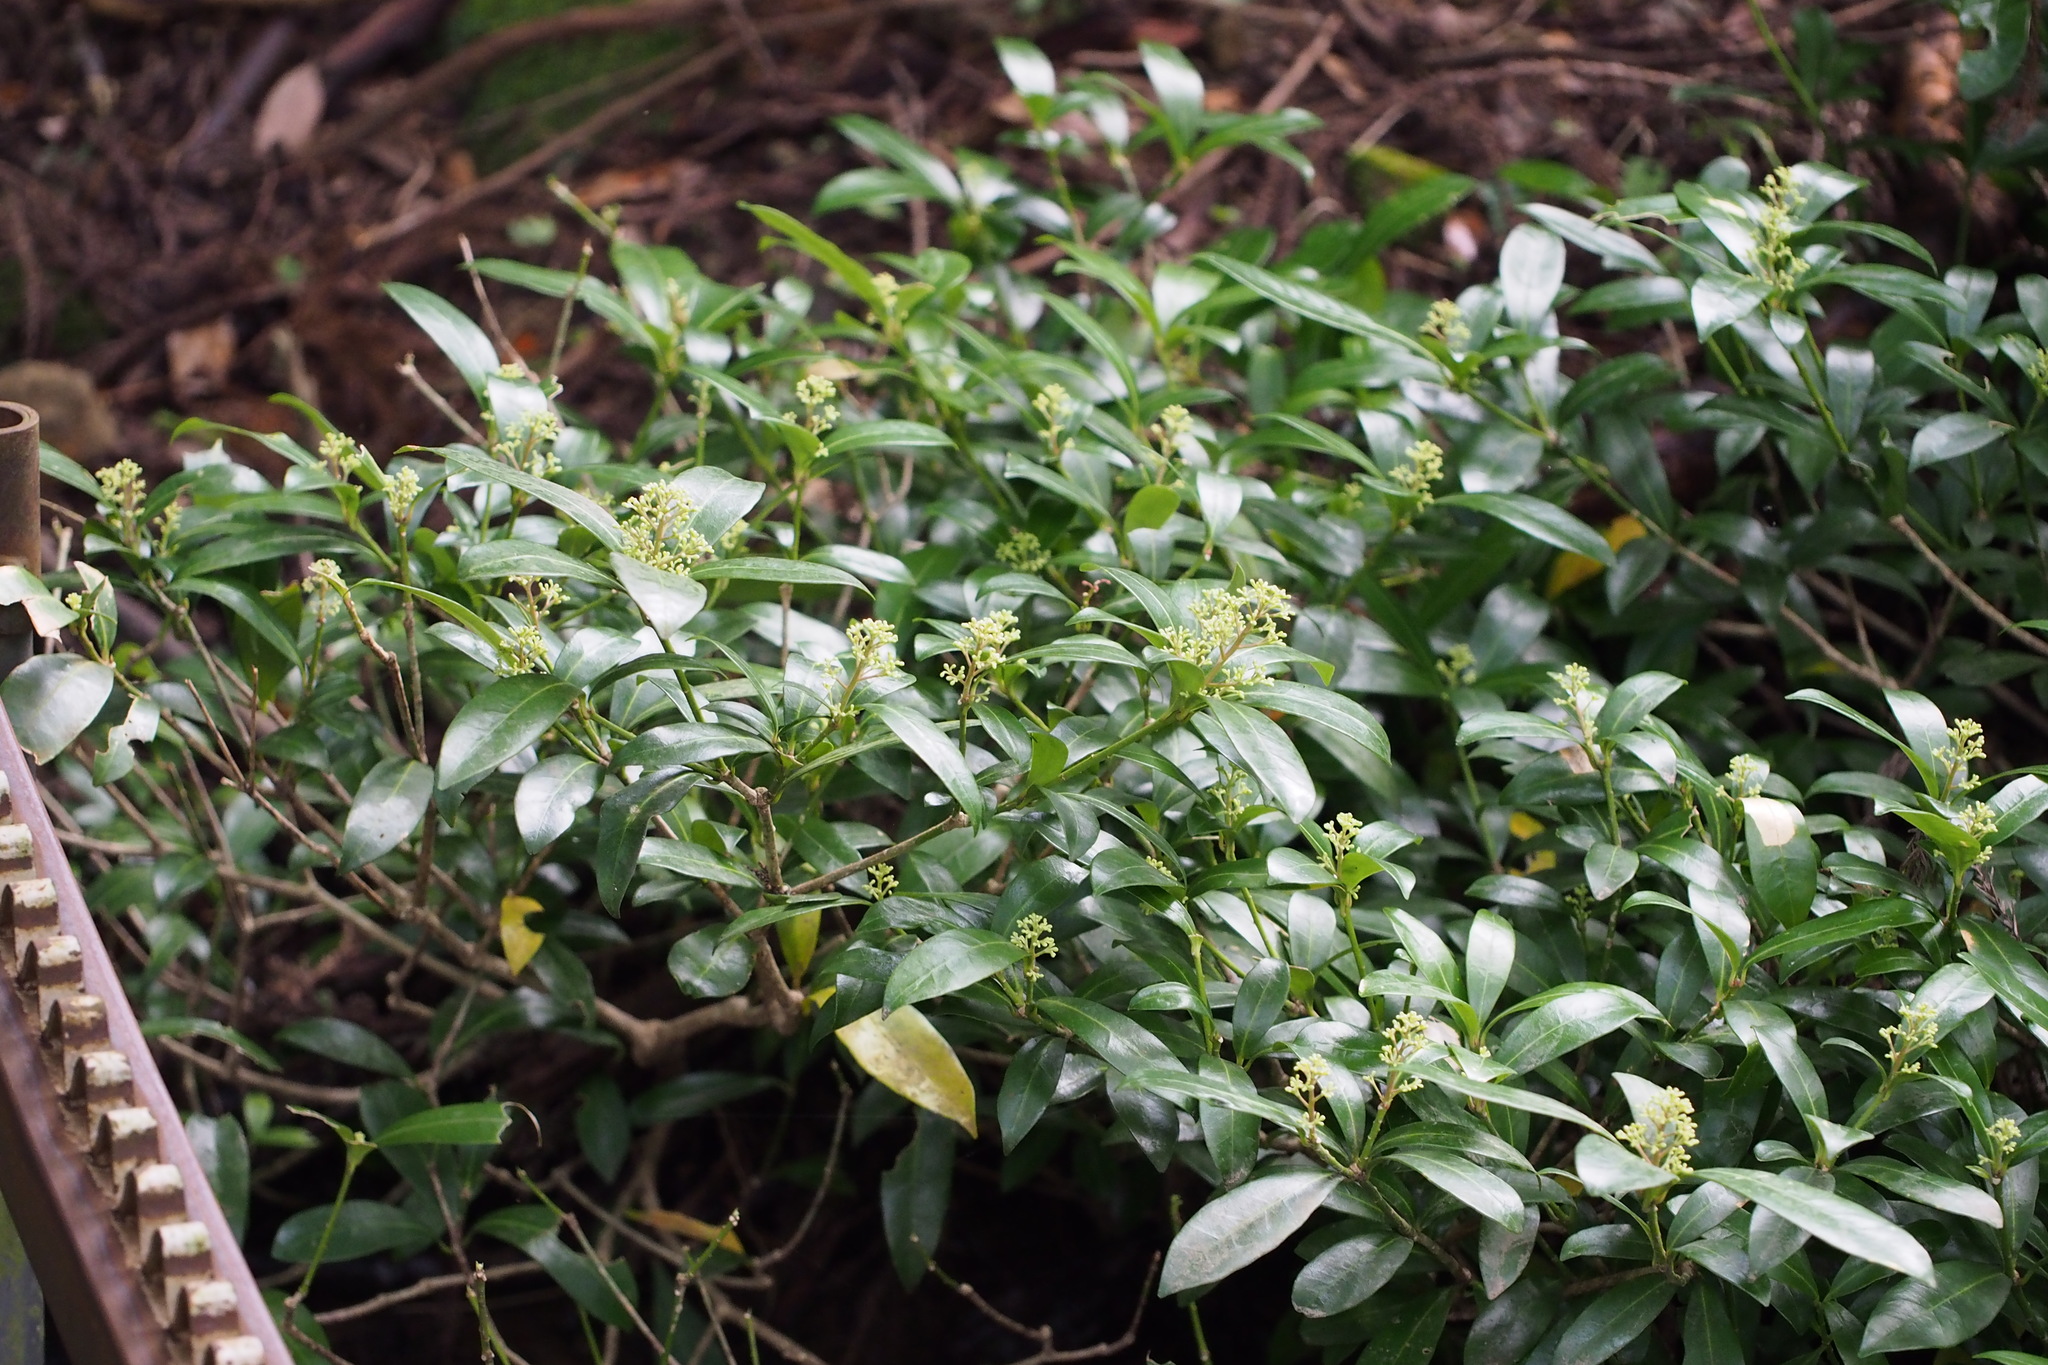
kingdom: Plantae
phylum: Tracheophyta
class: Magnoliopsida
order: Sapindales
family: Rutaceae
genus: Skimmia
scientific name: Skimmia japonica
